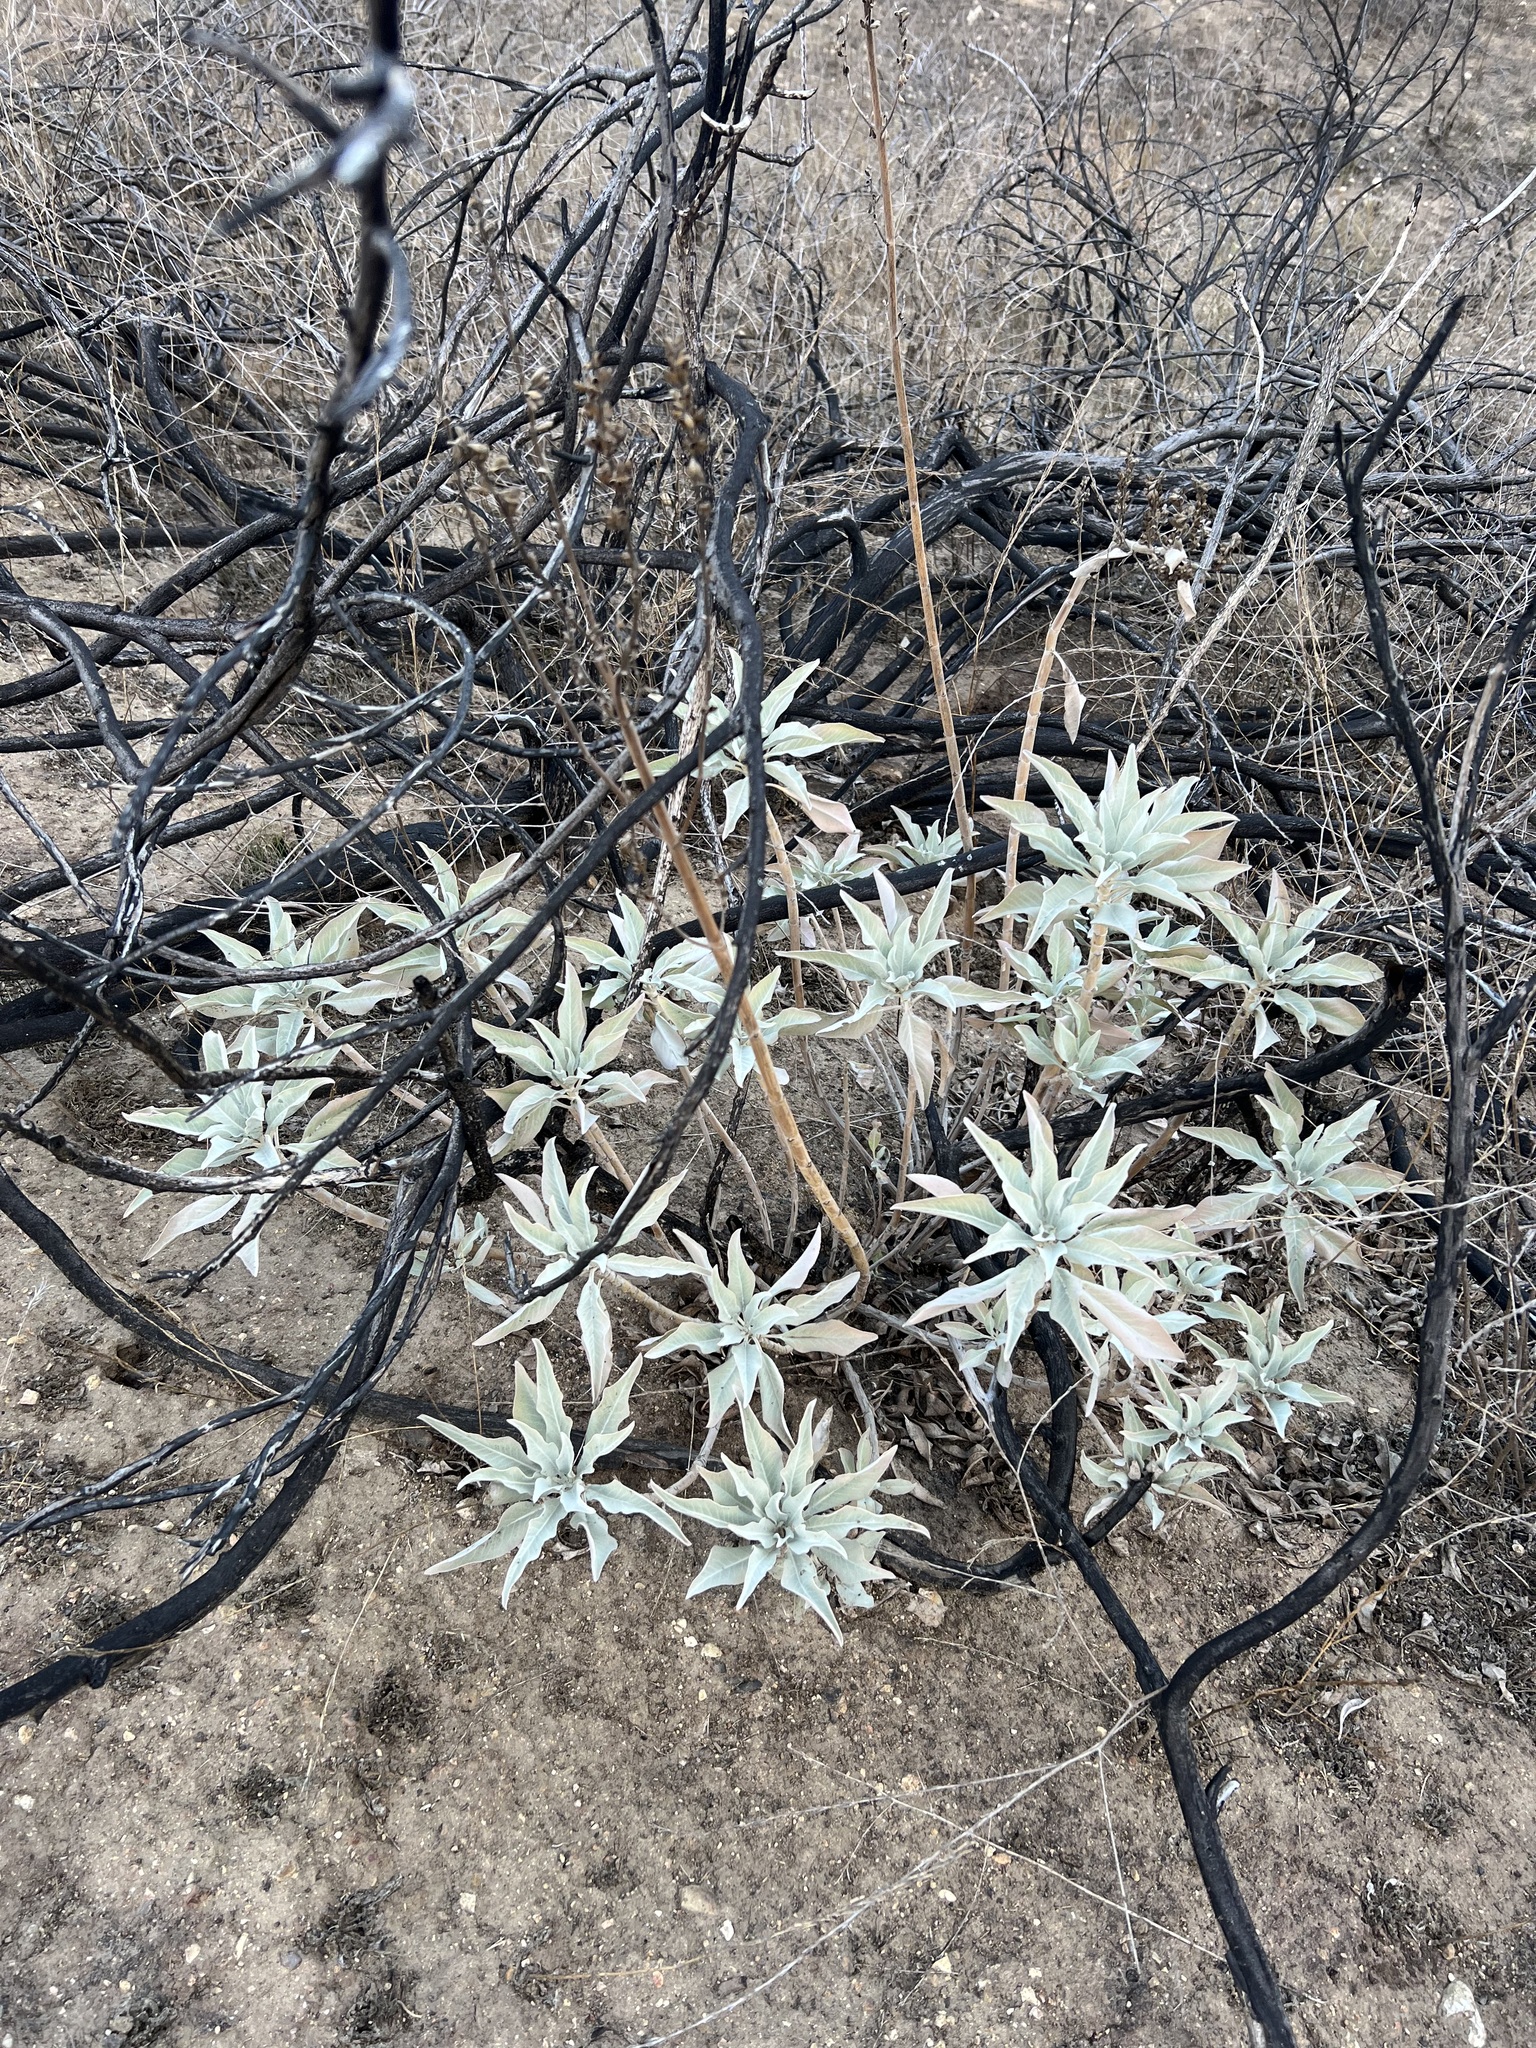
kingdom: Plantae
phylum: Tracheophyta
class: Magnoliopsida
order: Lamiales
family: Lamiaceae
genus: Salvia
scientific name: Salvia apiana
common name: White sage
